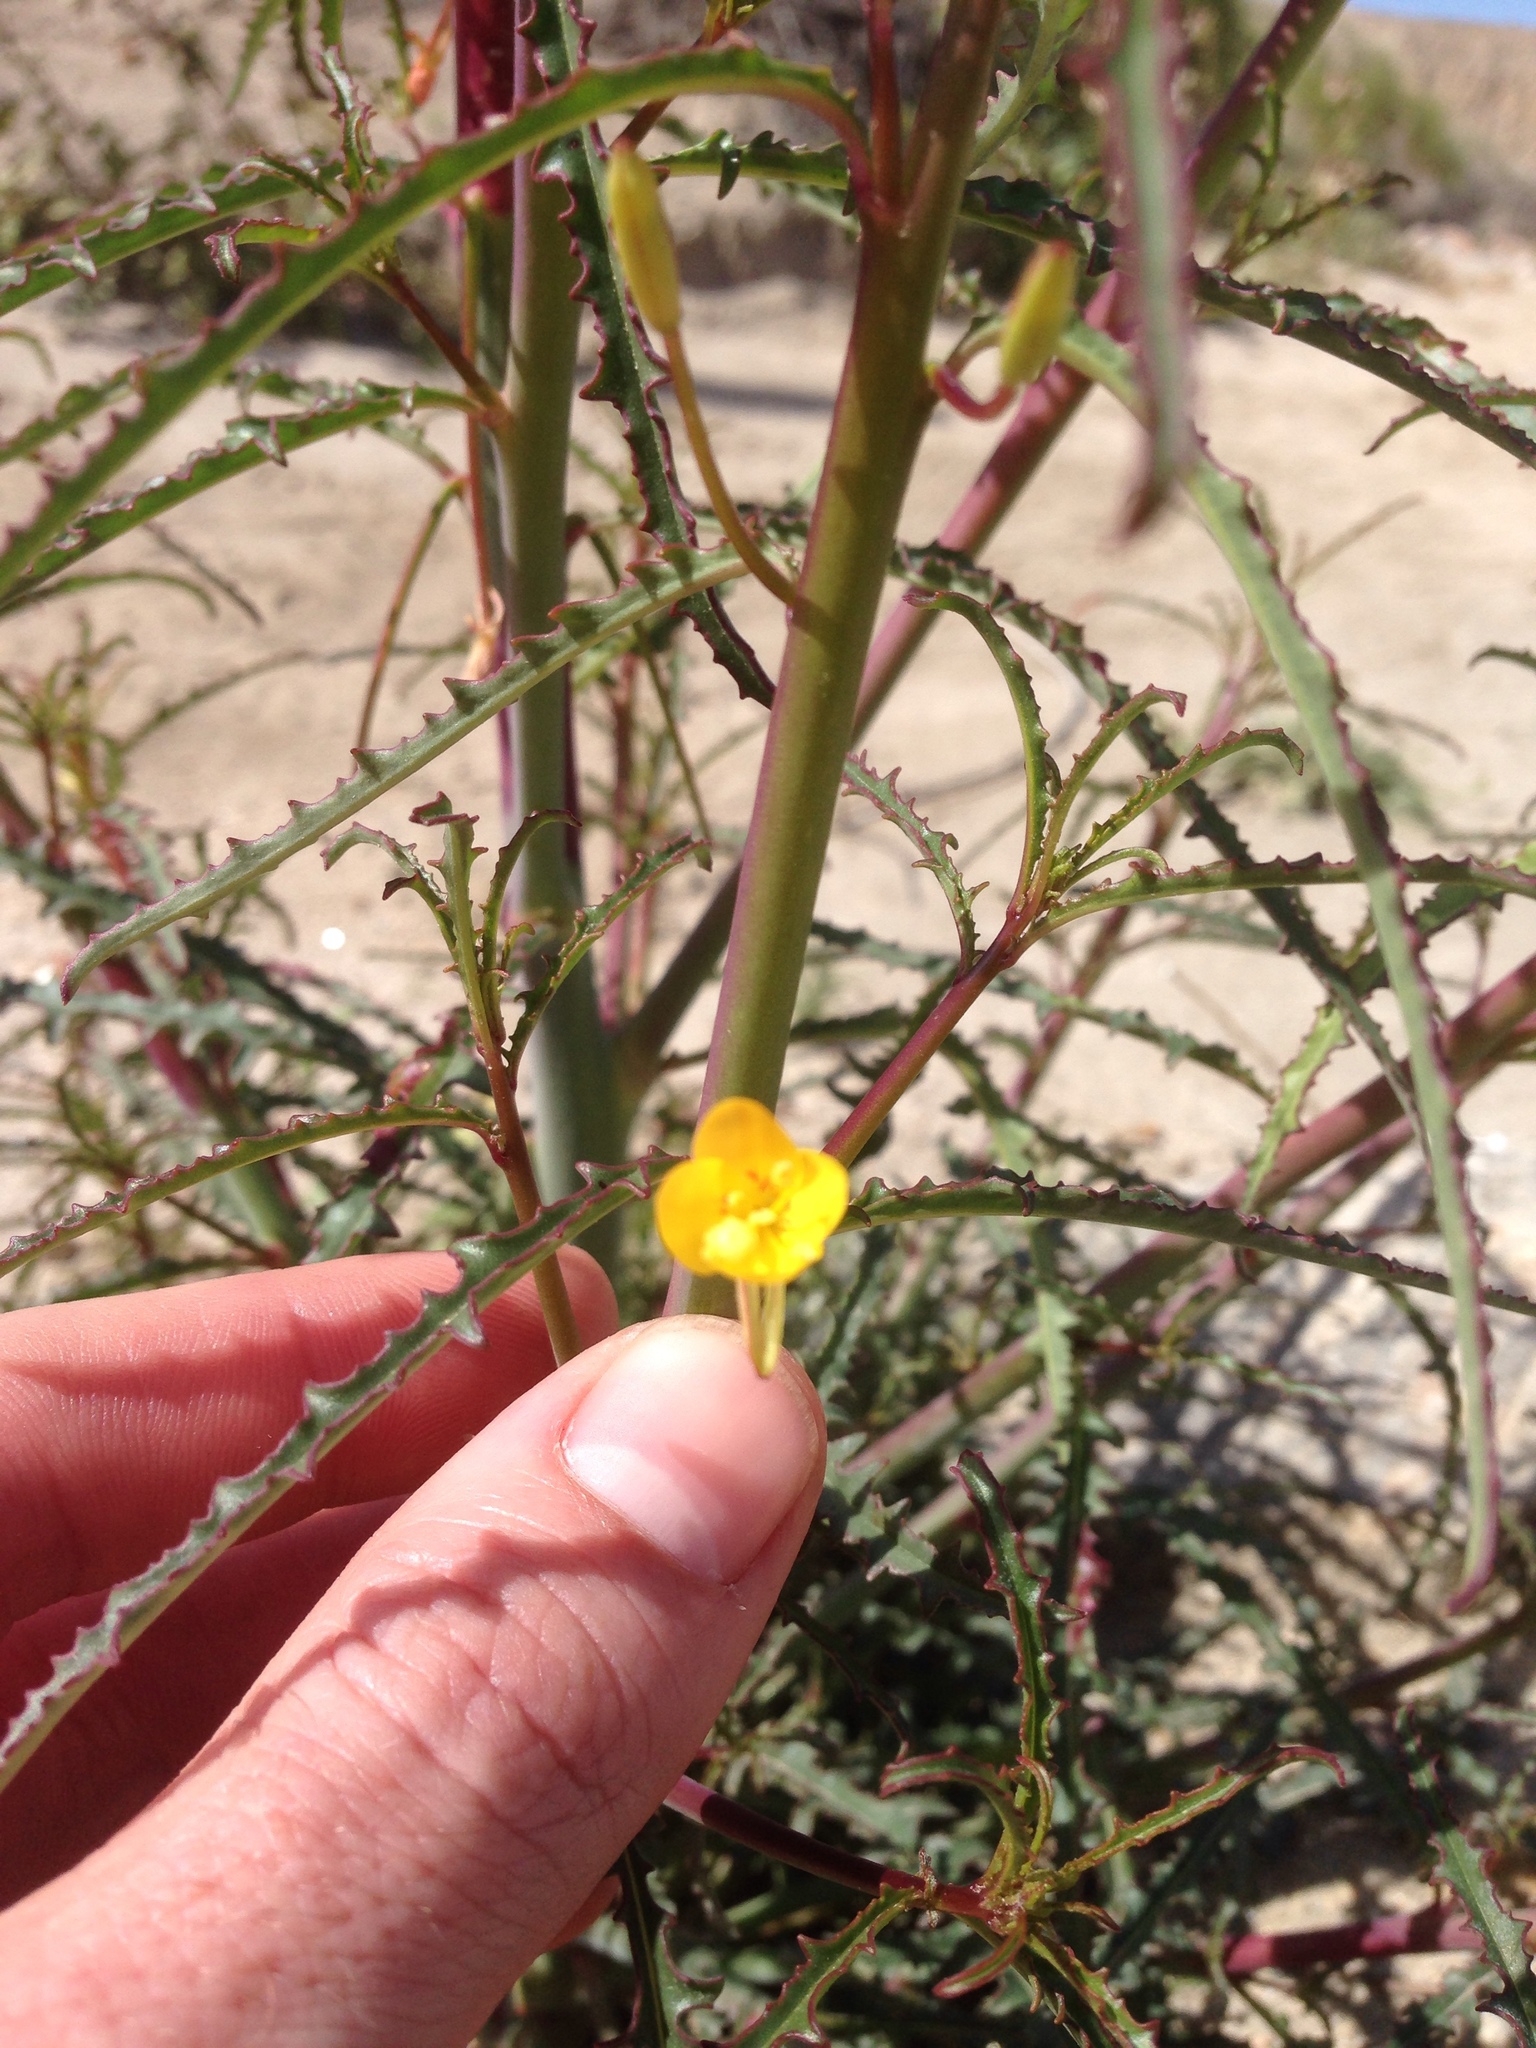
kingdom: Plantae
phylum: Tracheophyta
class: Magnoliopsida
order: Myrtales
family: Onagraceae
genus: Eulobus
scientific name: Eulobus californicus
